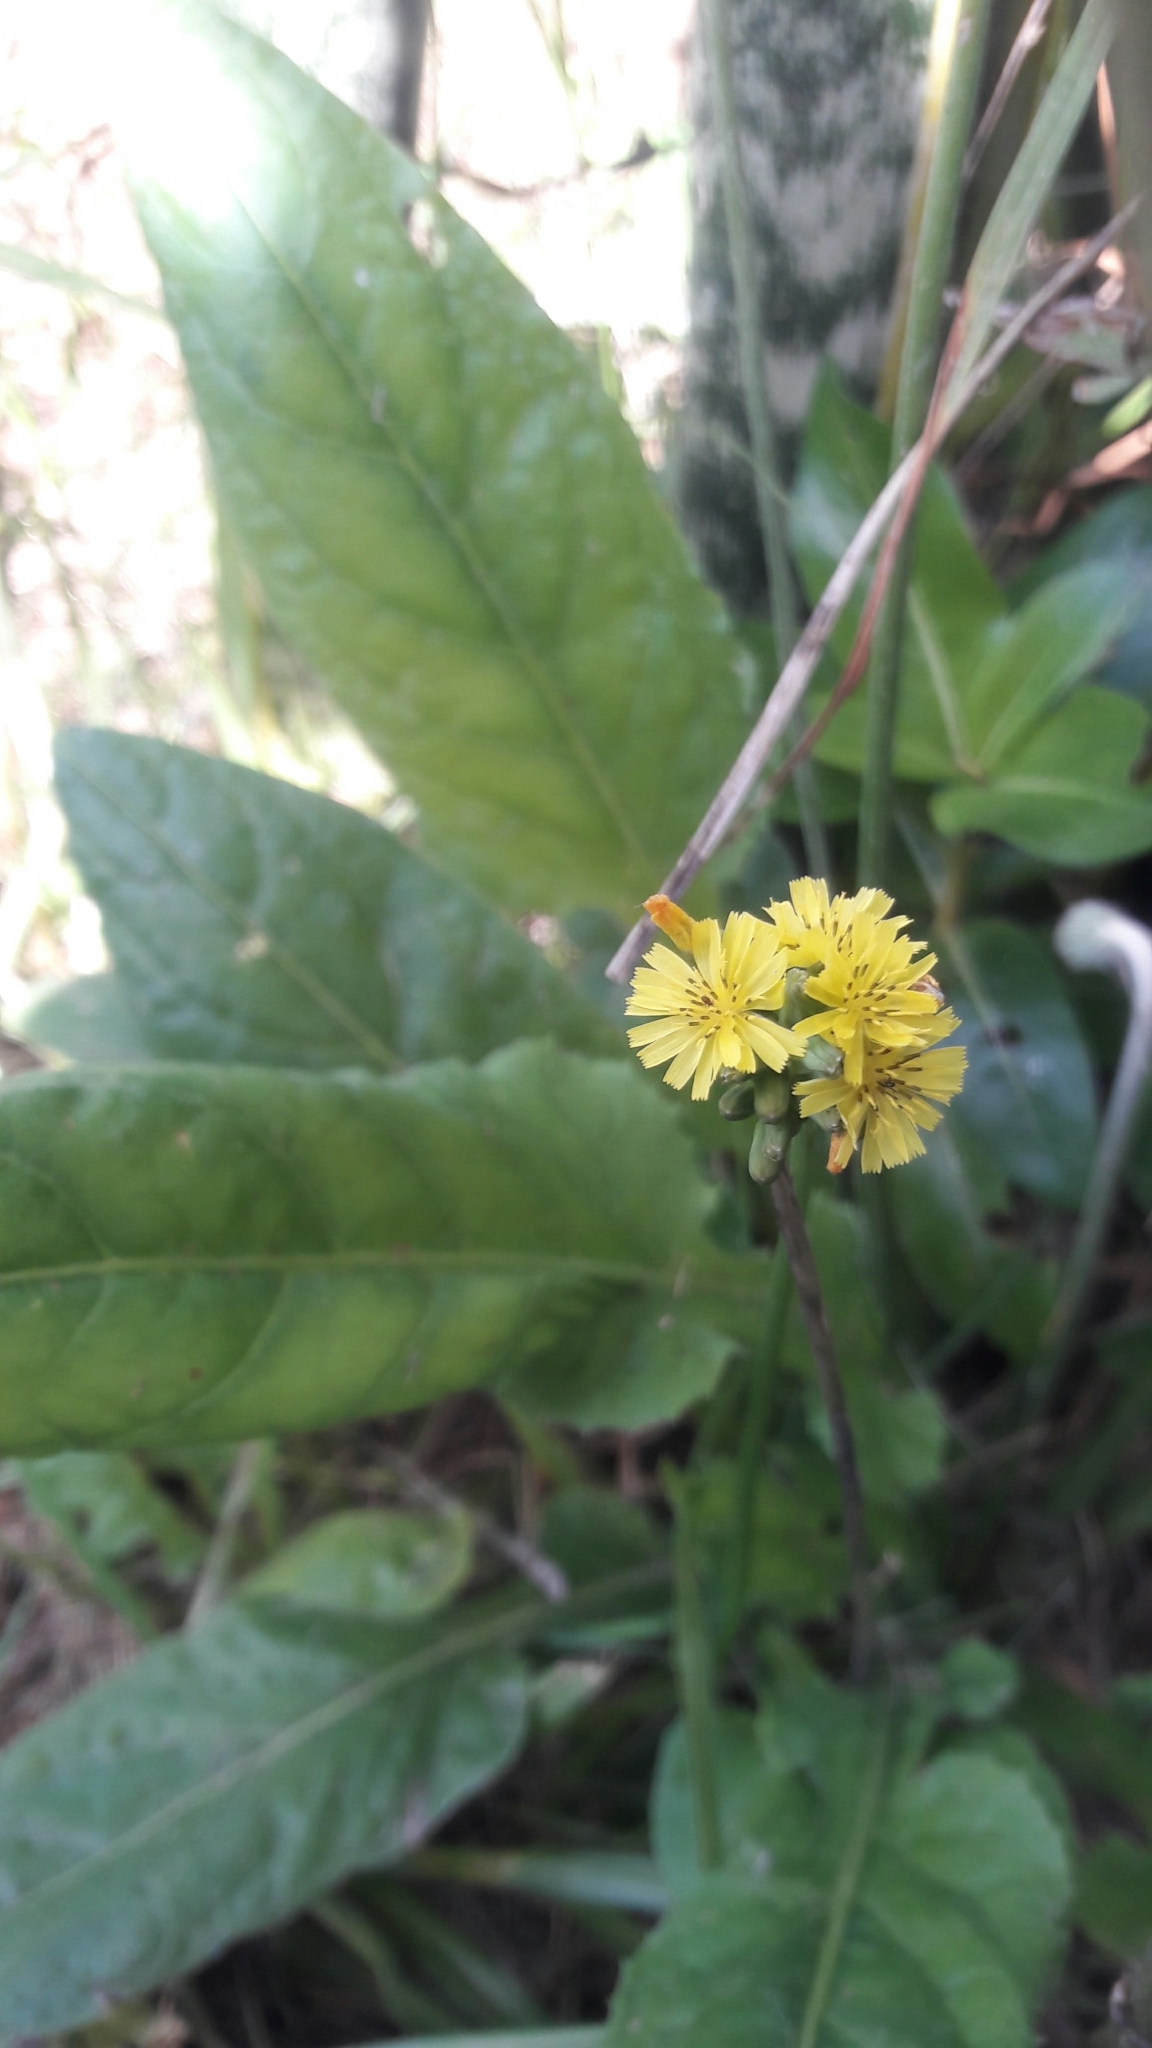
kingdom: Plantae
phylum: Tracheophyta
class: Magnoliopsida
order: Asterales
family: Asteraceae
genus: Youngia
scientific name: Youngia japonica
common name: Oriental false hawksbeard
